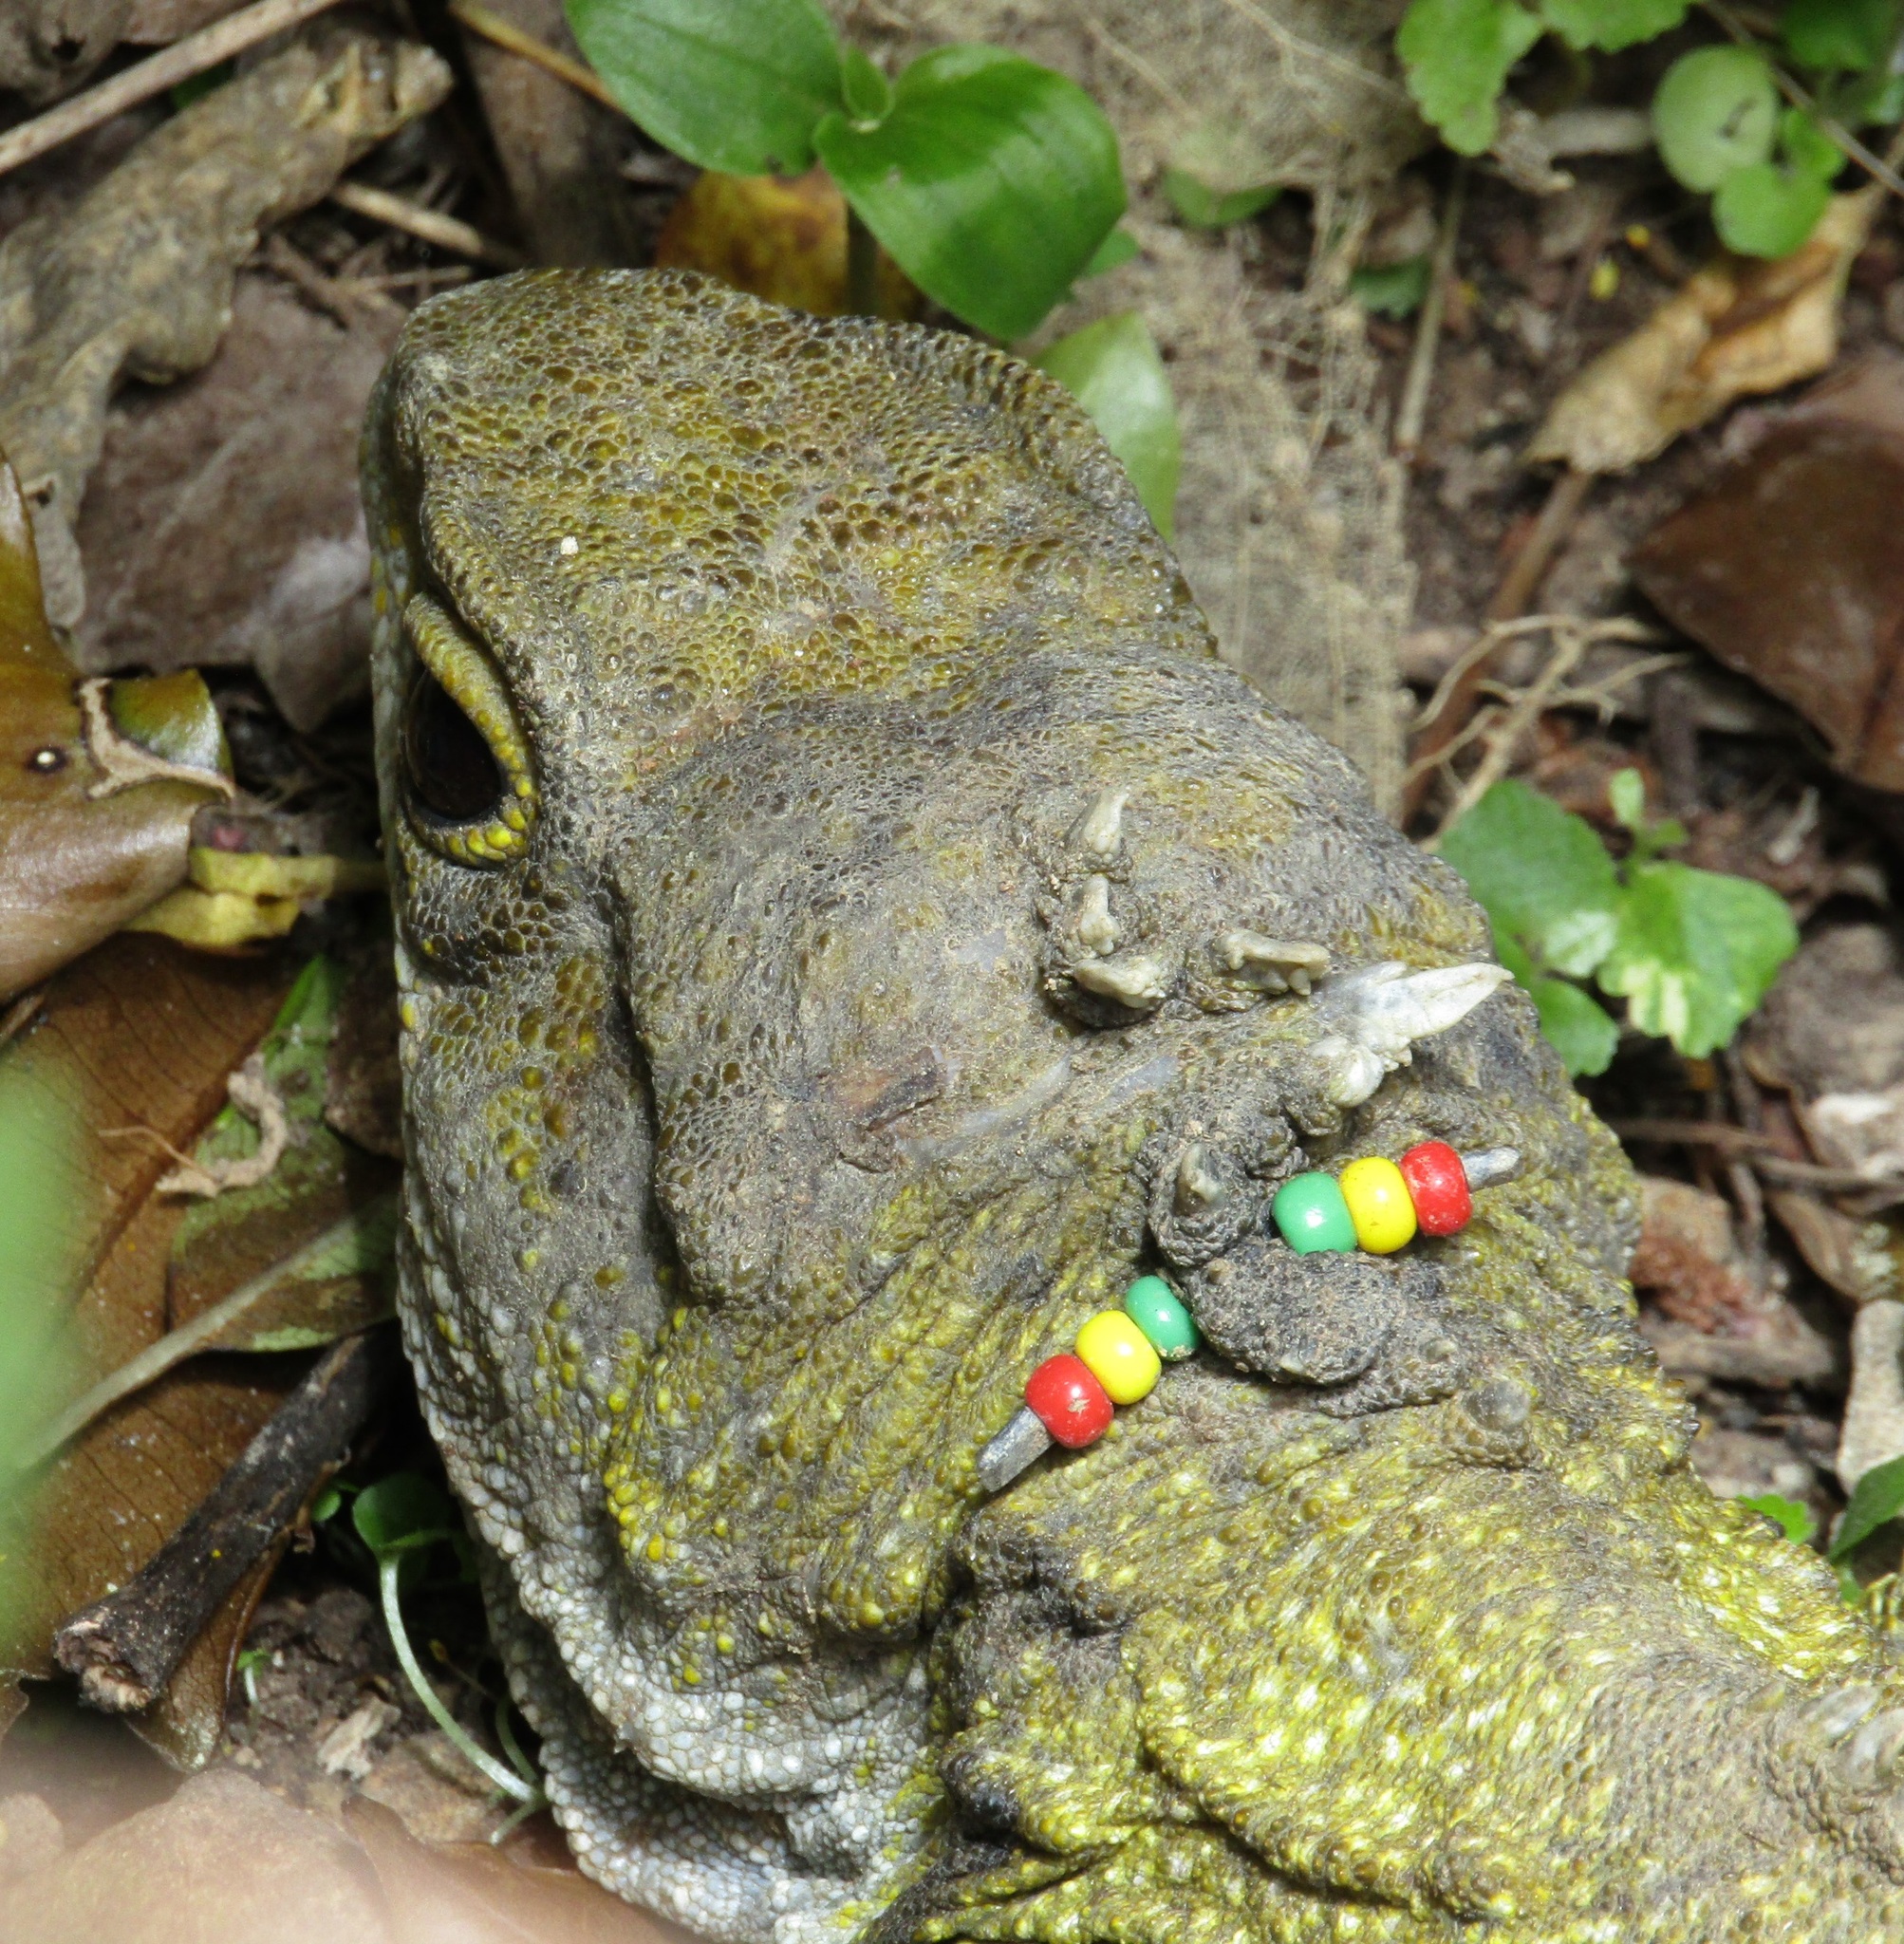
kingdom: Animalia
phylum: Chordata
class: Sphenodontia
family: Sphenodontidae
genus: Sphenodon
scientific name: Sphenodon punctatus
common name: Tuatara
